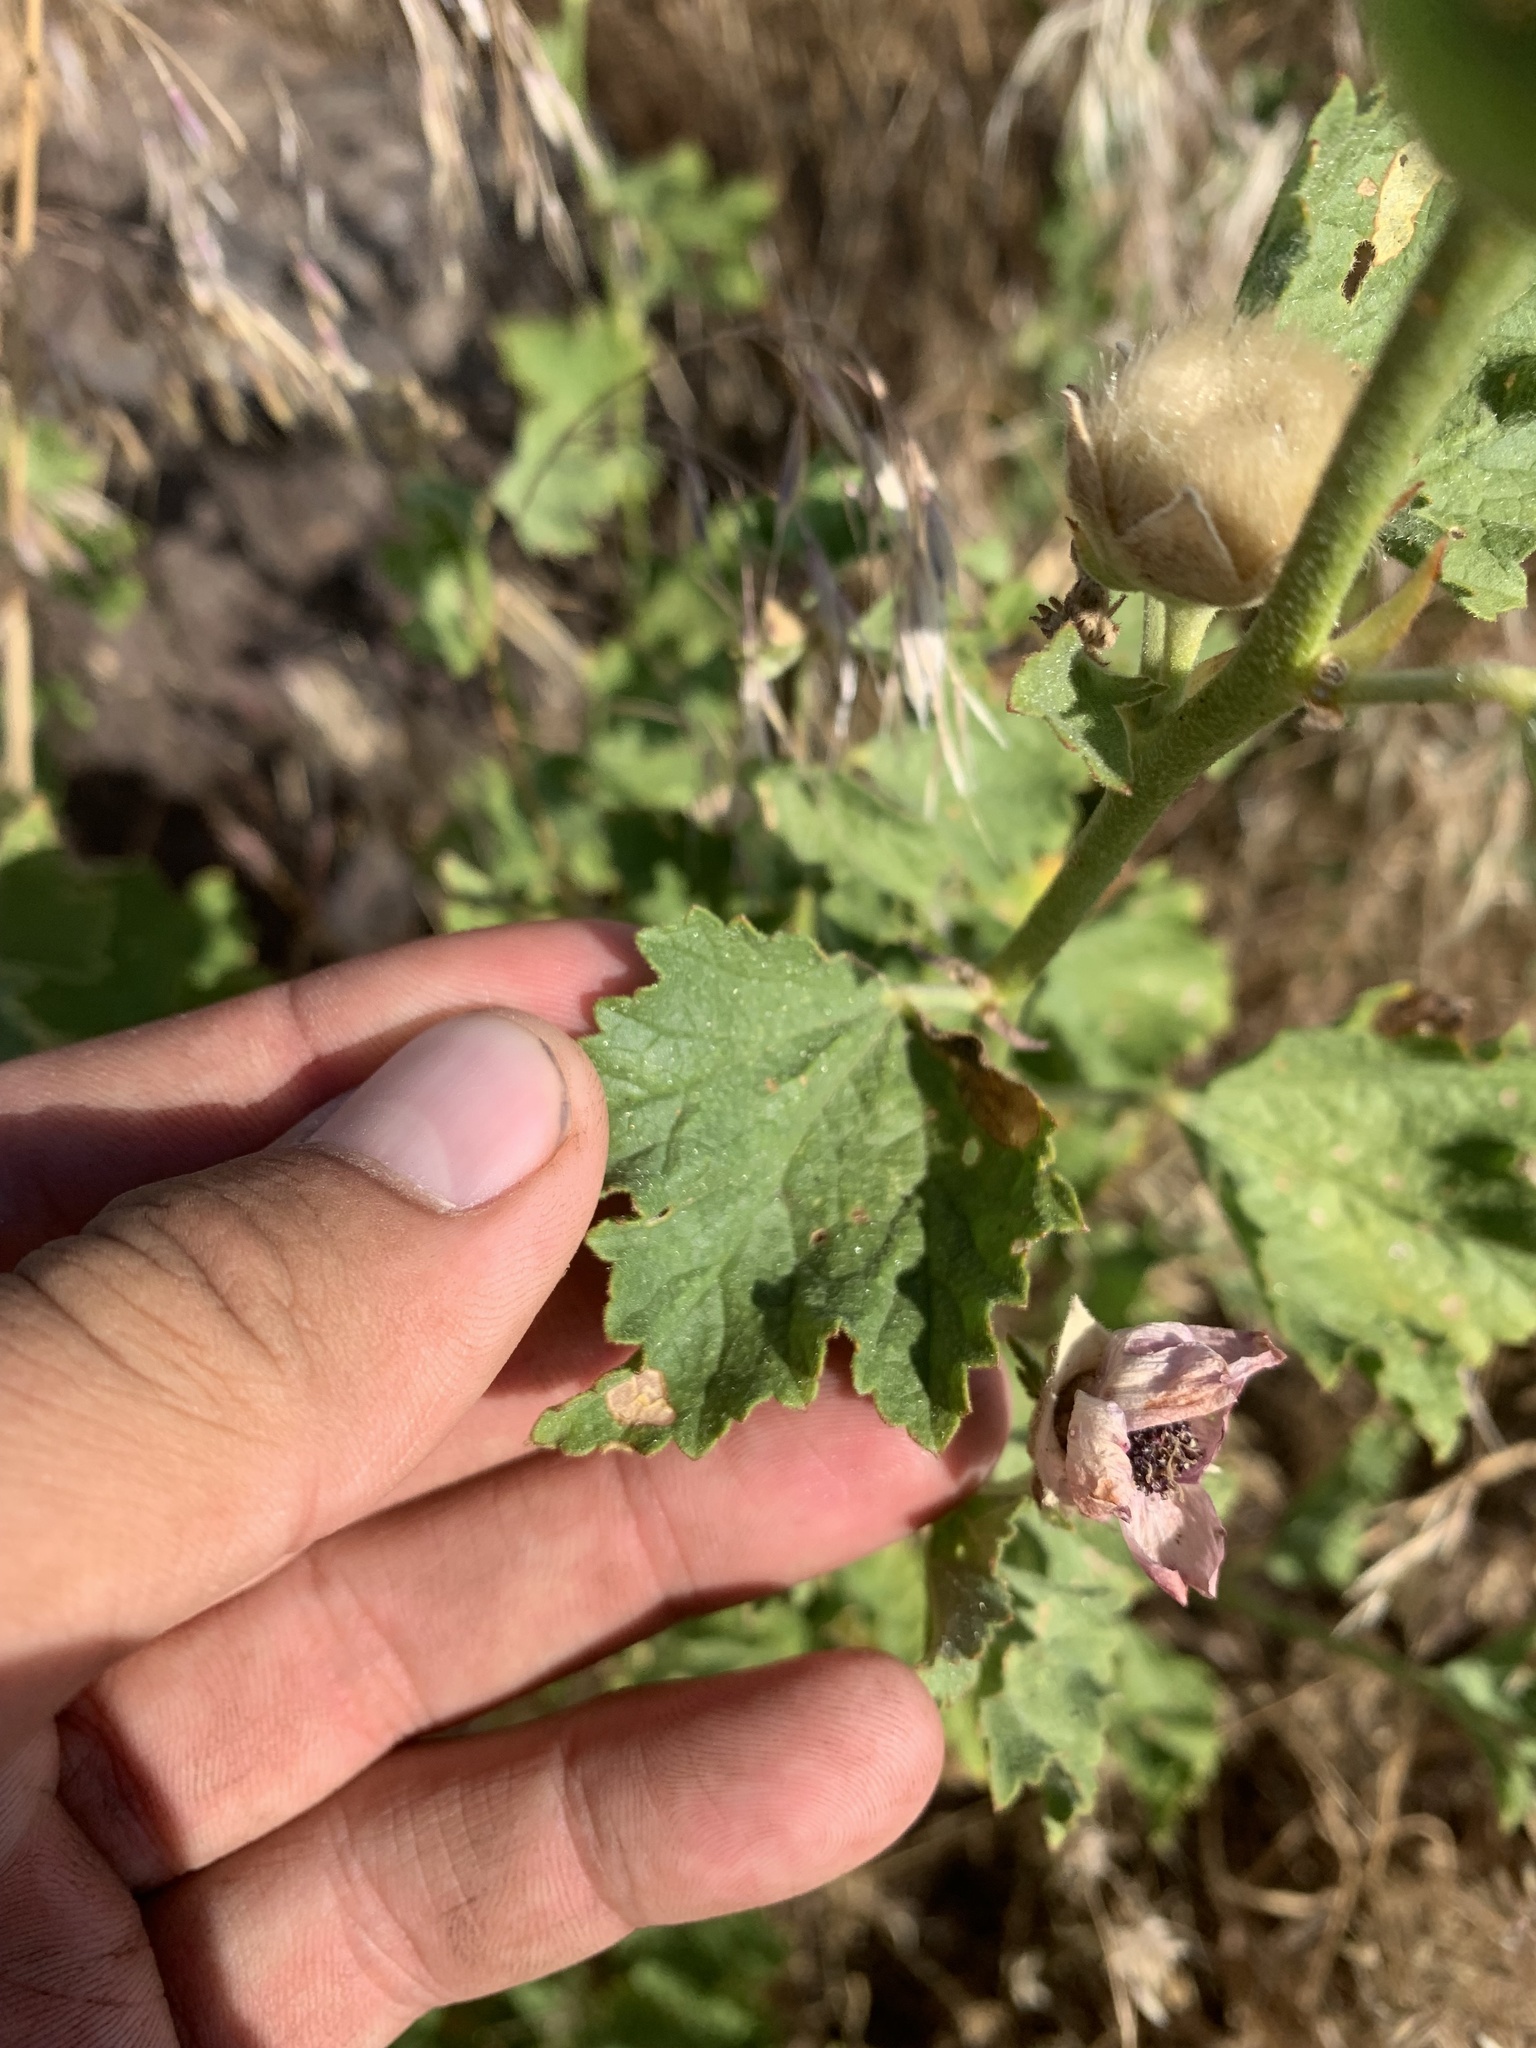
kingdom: Plantae
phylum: Tracheophyta
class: Magnoliopsida
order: Malvales
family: Malvaceae
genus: Iliamna
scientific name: Iliamna bakeri
